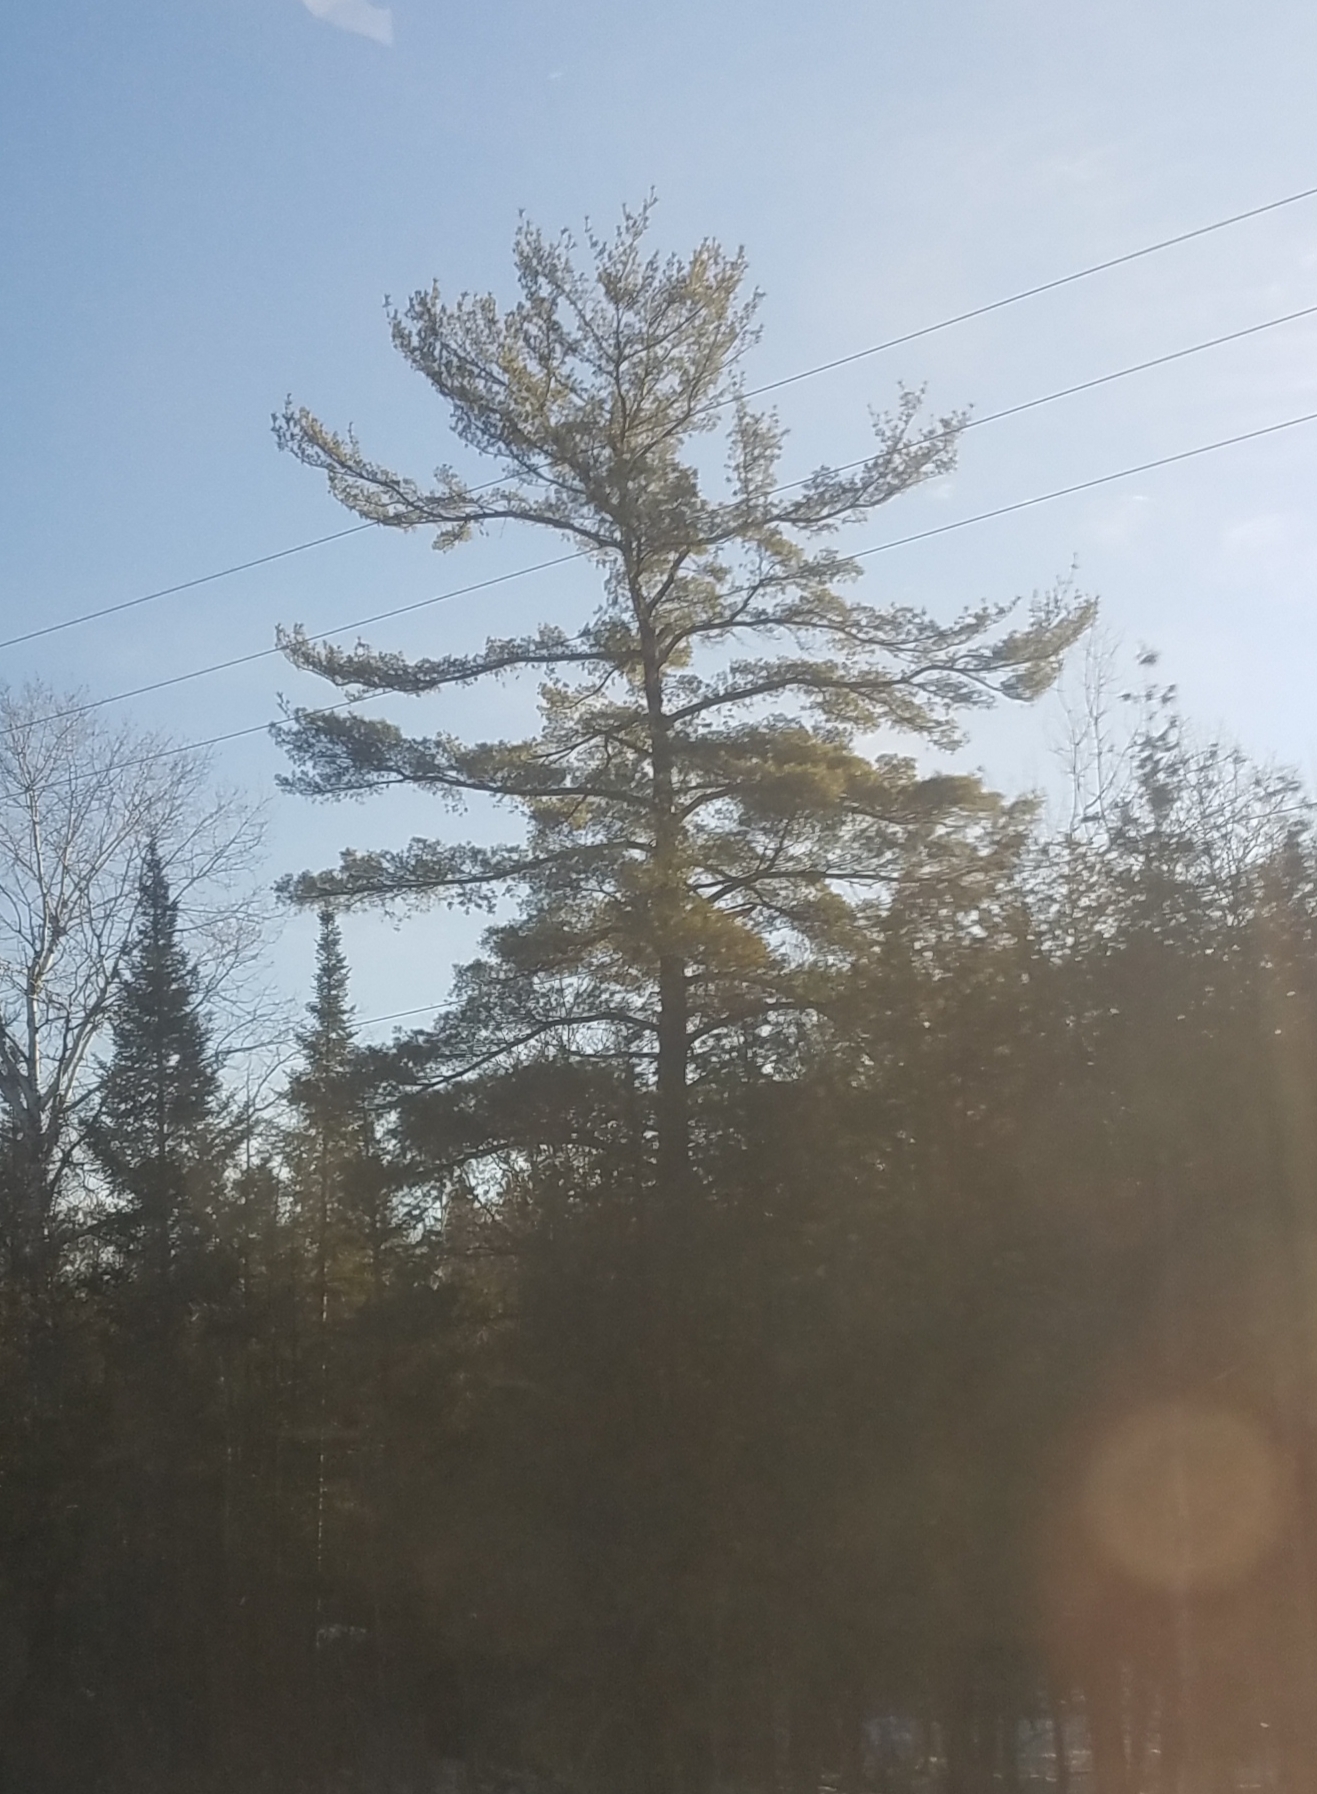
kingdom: Plantae
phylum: Tracheophyta
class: Pinopsida
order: Pinales
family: Pinaceae
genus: Pinus
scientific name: Pinus strobus
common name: Weymouth pine
